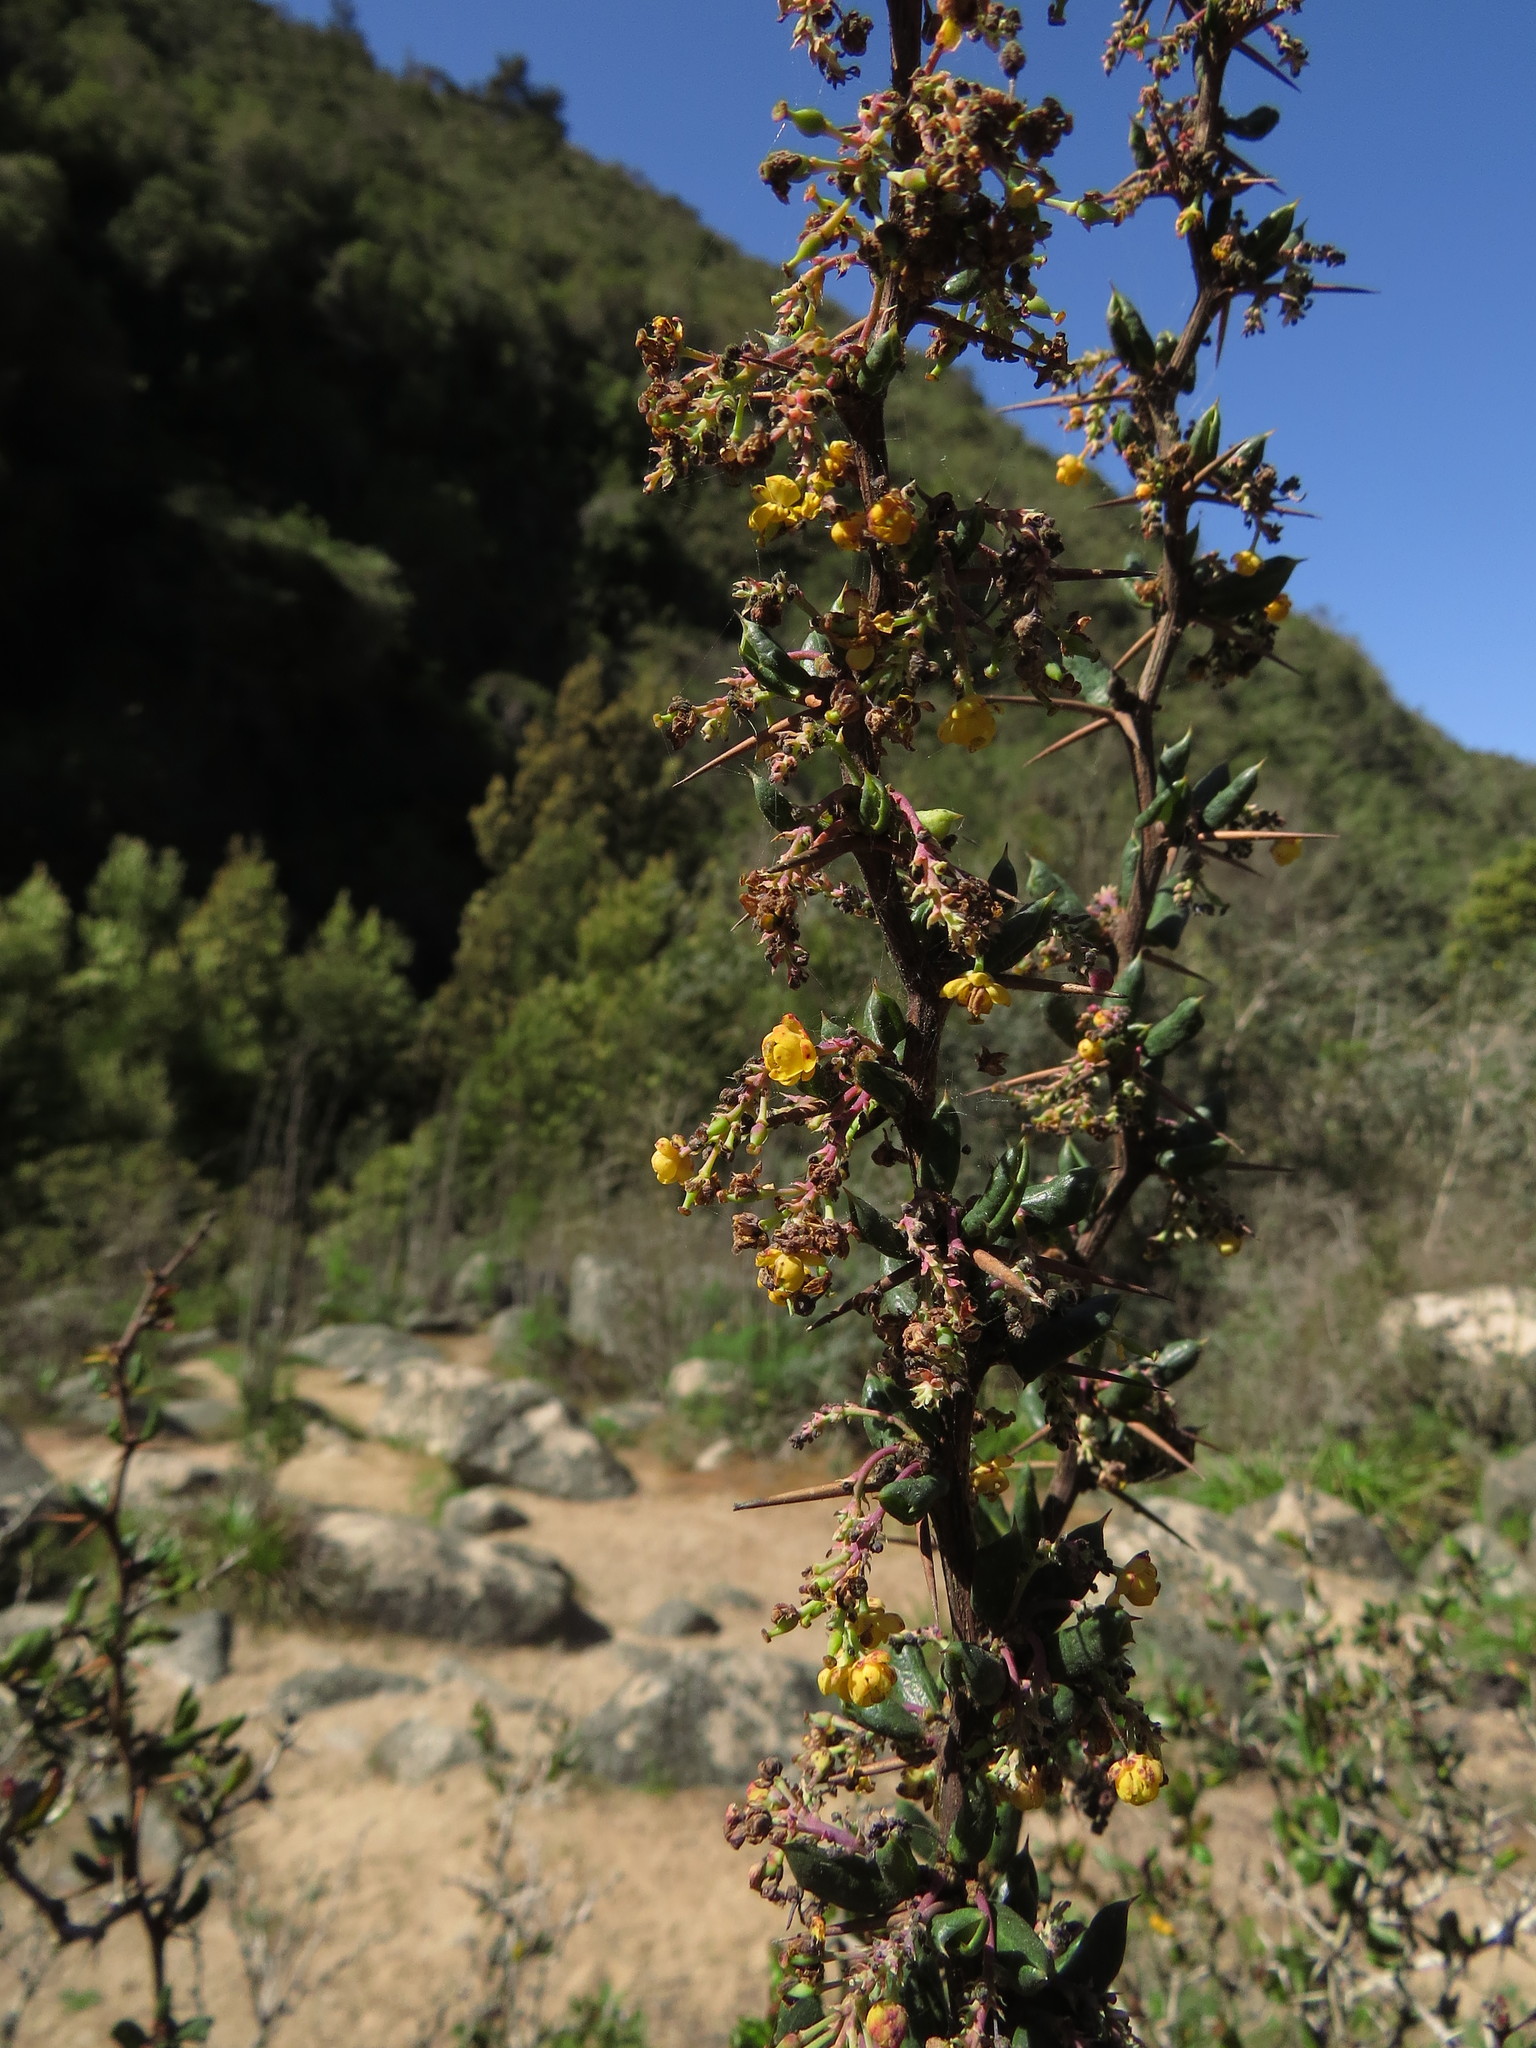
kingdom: Plantae
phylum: Tracheophyta
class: Magnoliopsida
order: Ranunculales
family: Berberidaceae
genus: Berberis
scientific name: Berberis chilensis
